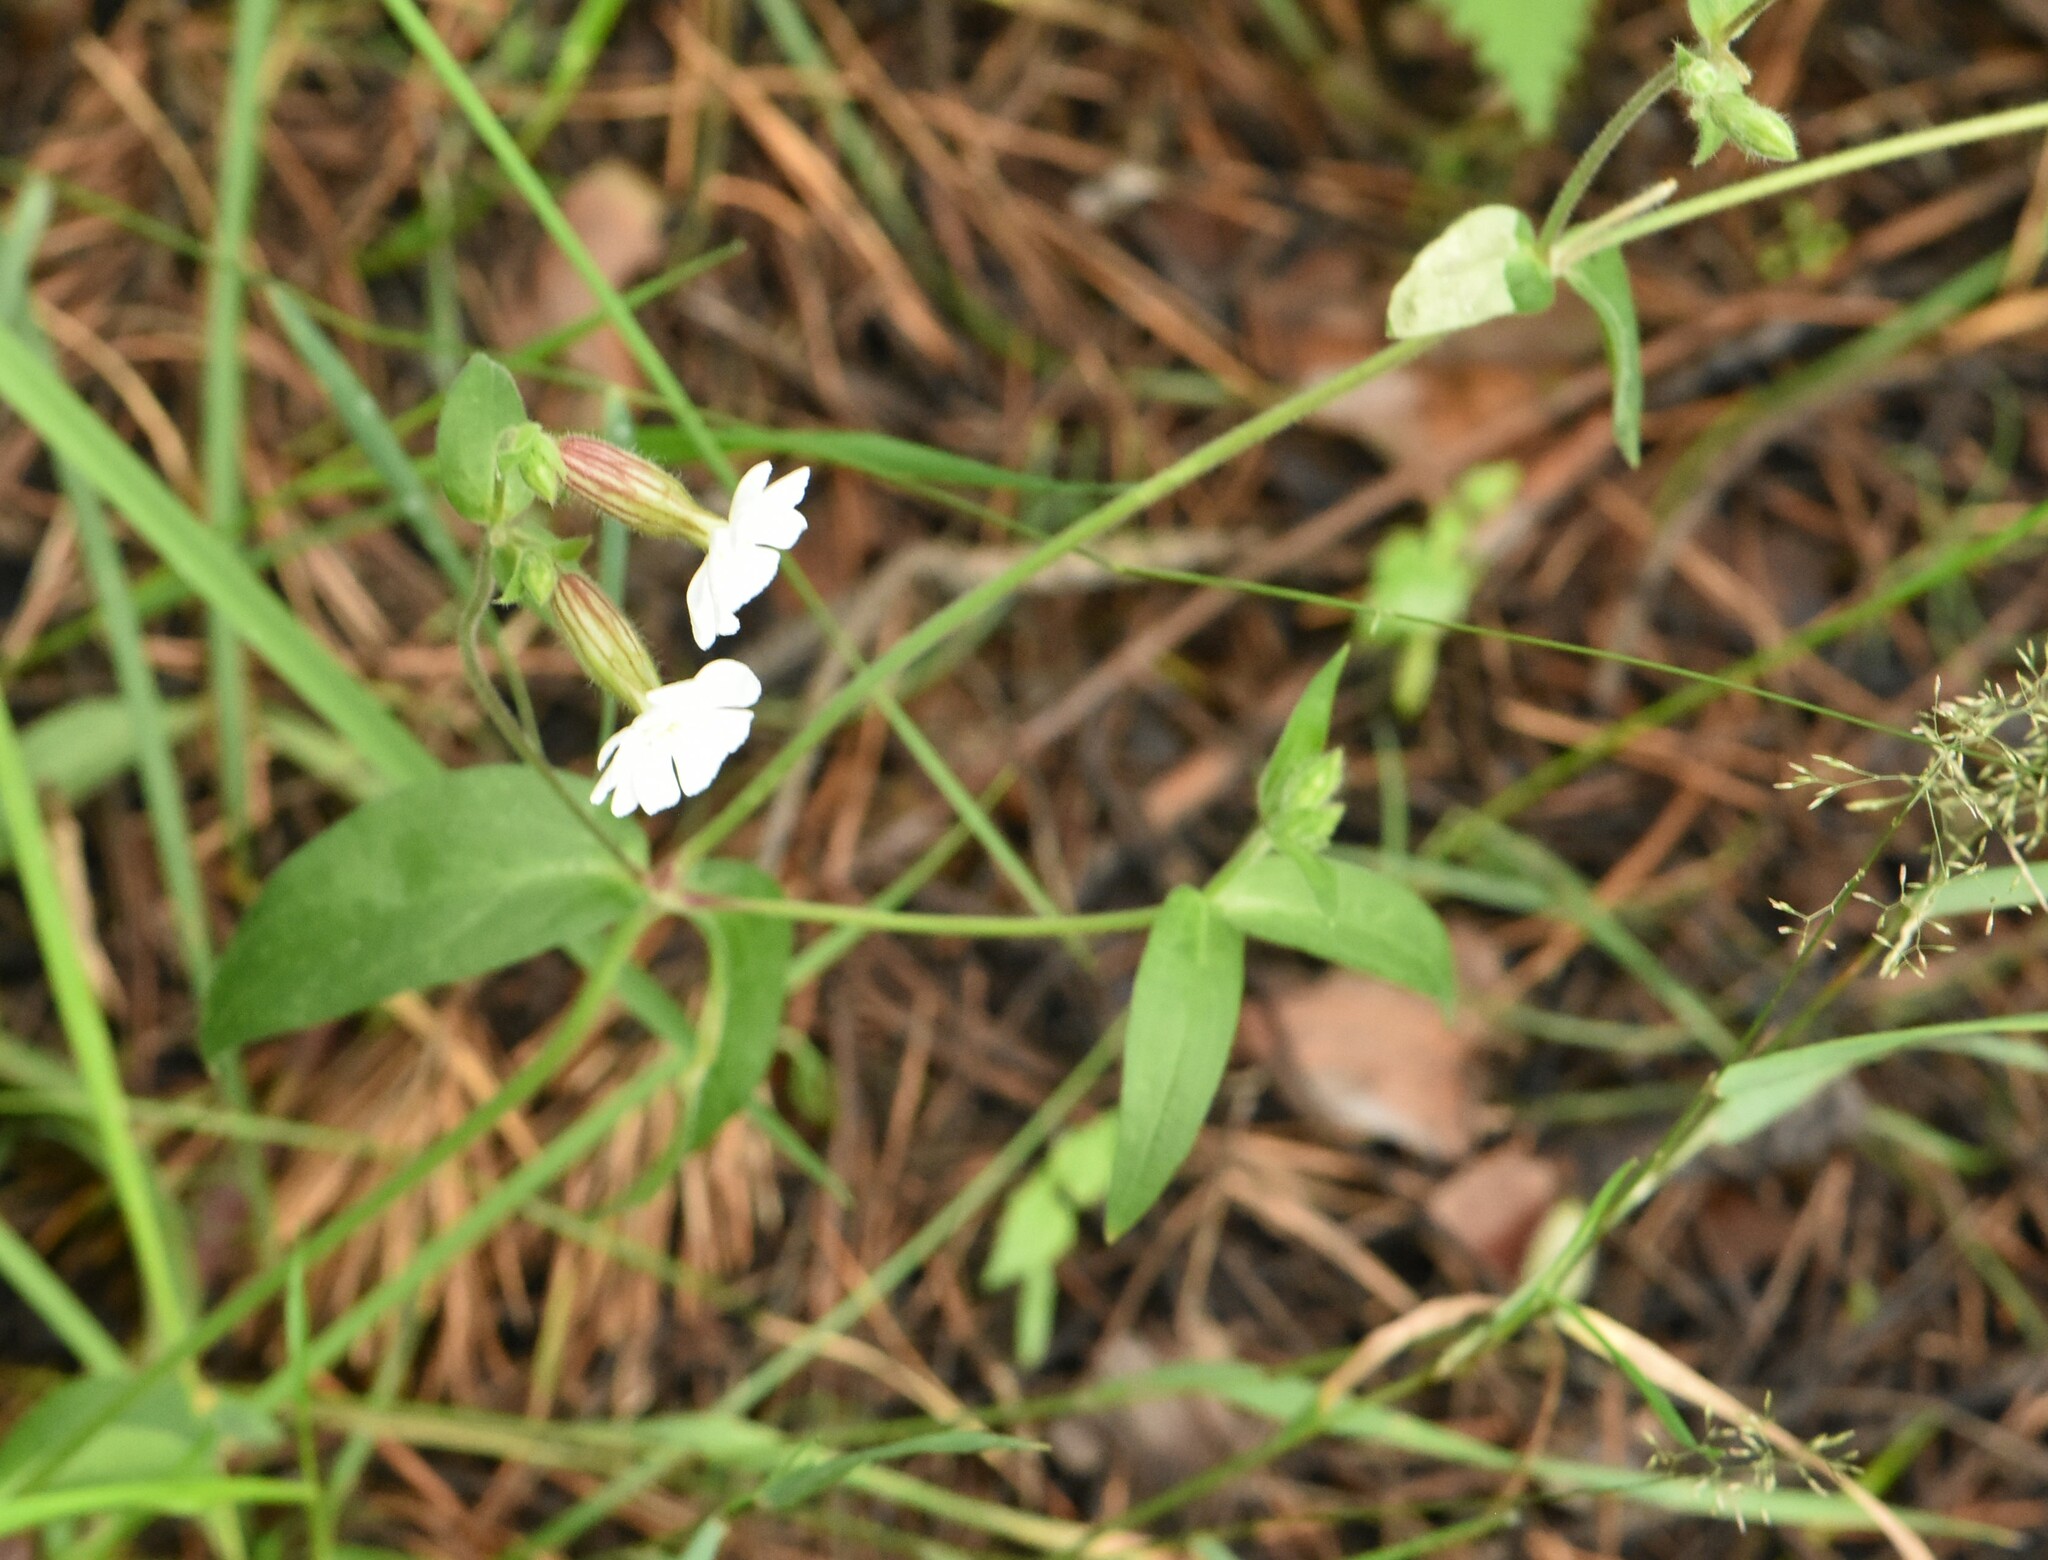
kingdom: Plantae
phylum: Tracheophyta
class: Magnoliopsida
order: Caryophyllales
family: Caryophyllaceae
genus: Silene
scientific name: Silene latifolia
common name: White campion
